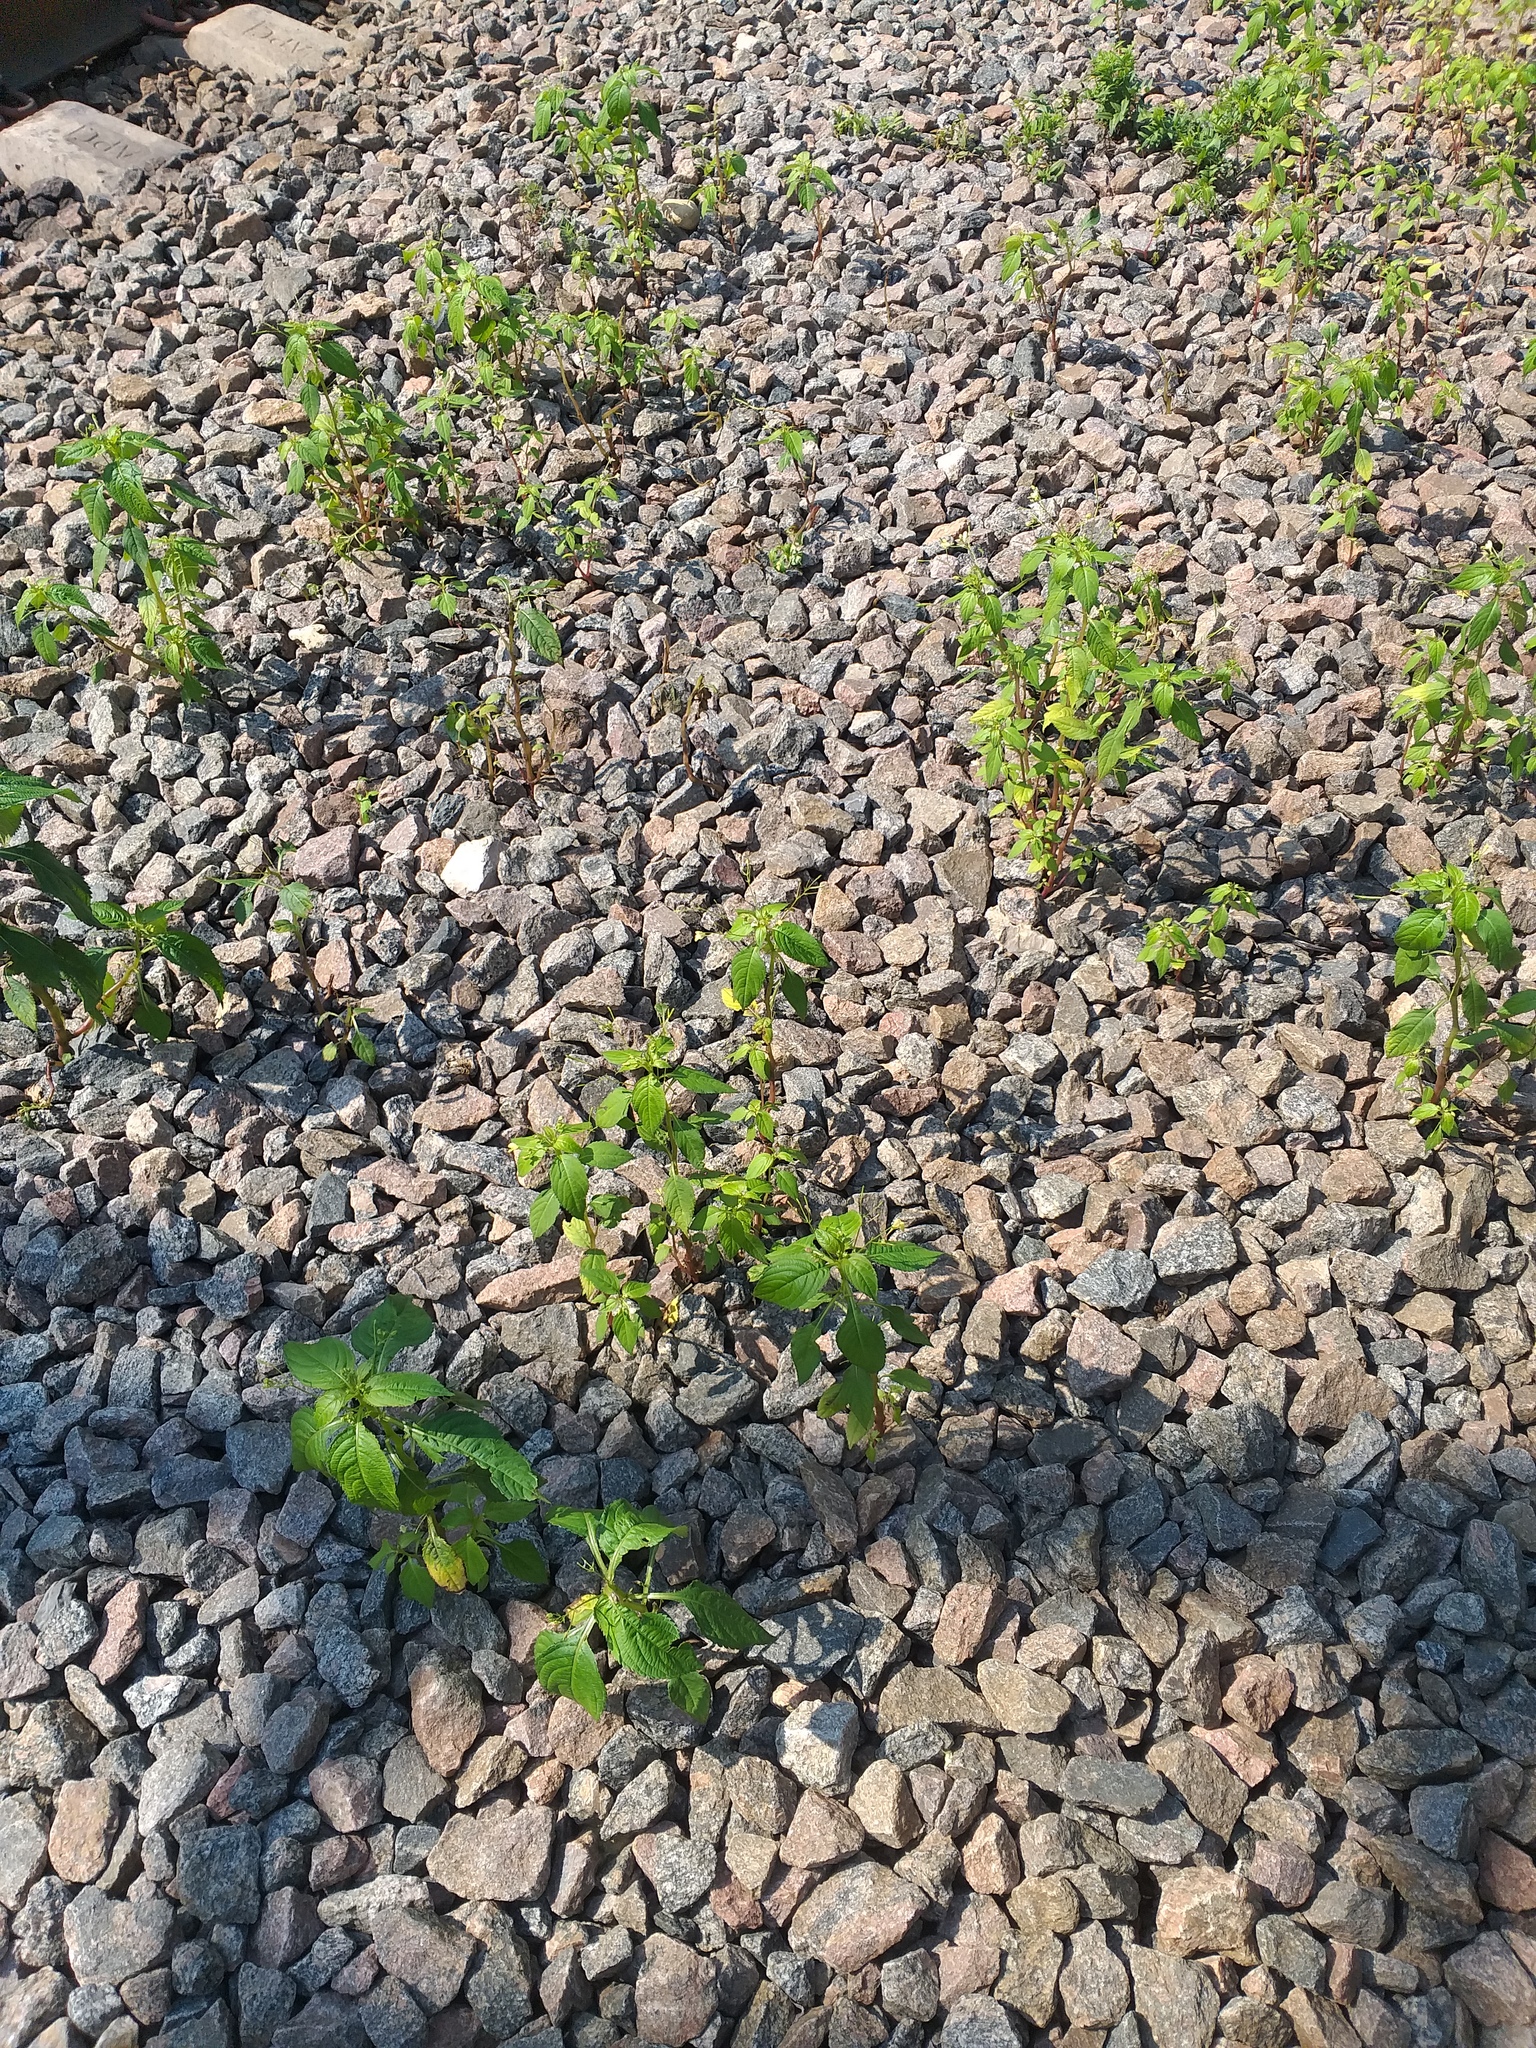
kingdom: Plantae
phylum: Tracheophyta
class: Magnoliopsida
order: Ericales
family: Balsaminaceae
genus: Impatiens
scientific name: Impatiens parviflora
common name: Small balsam
